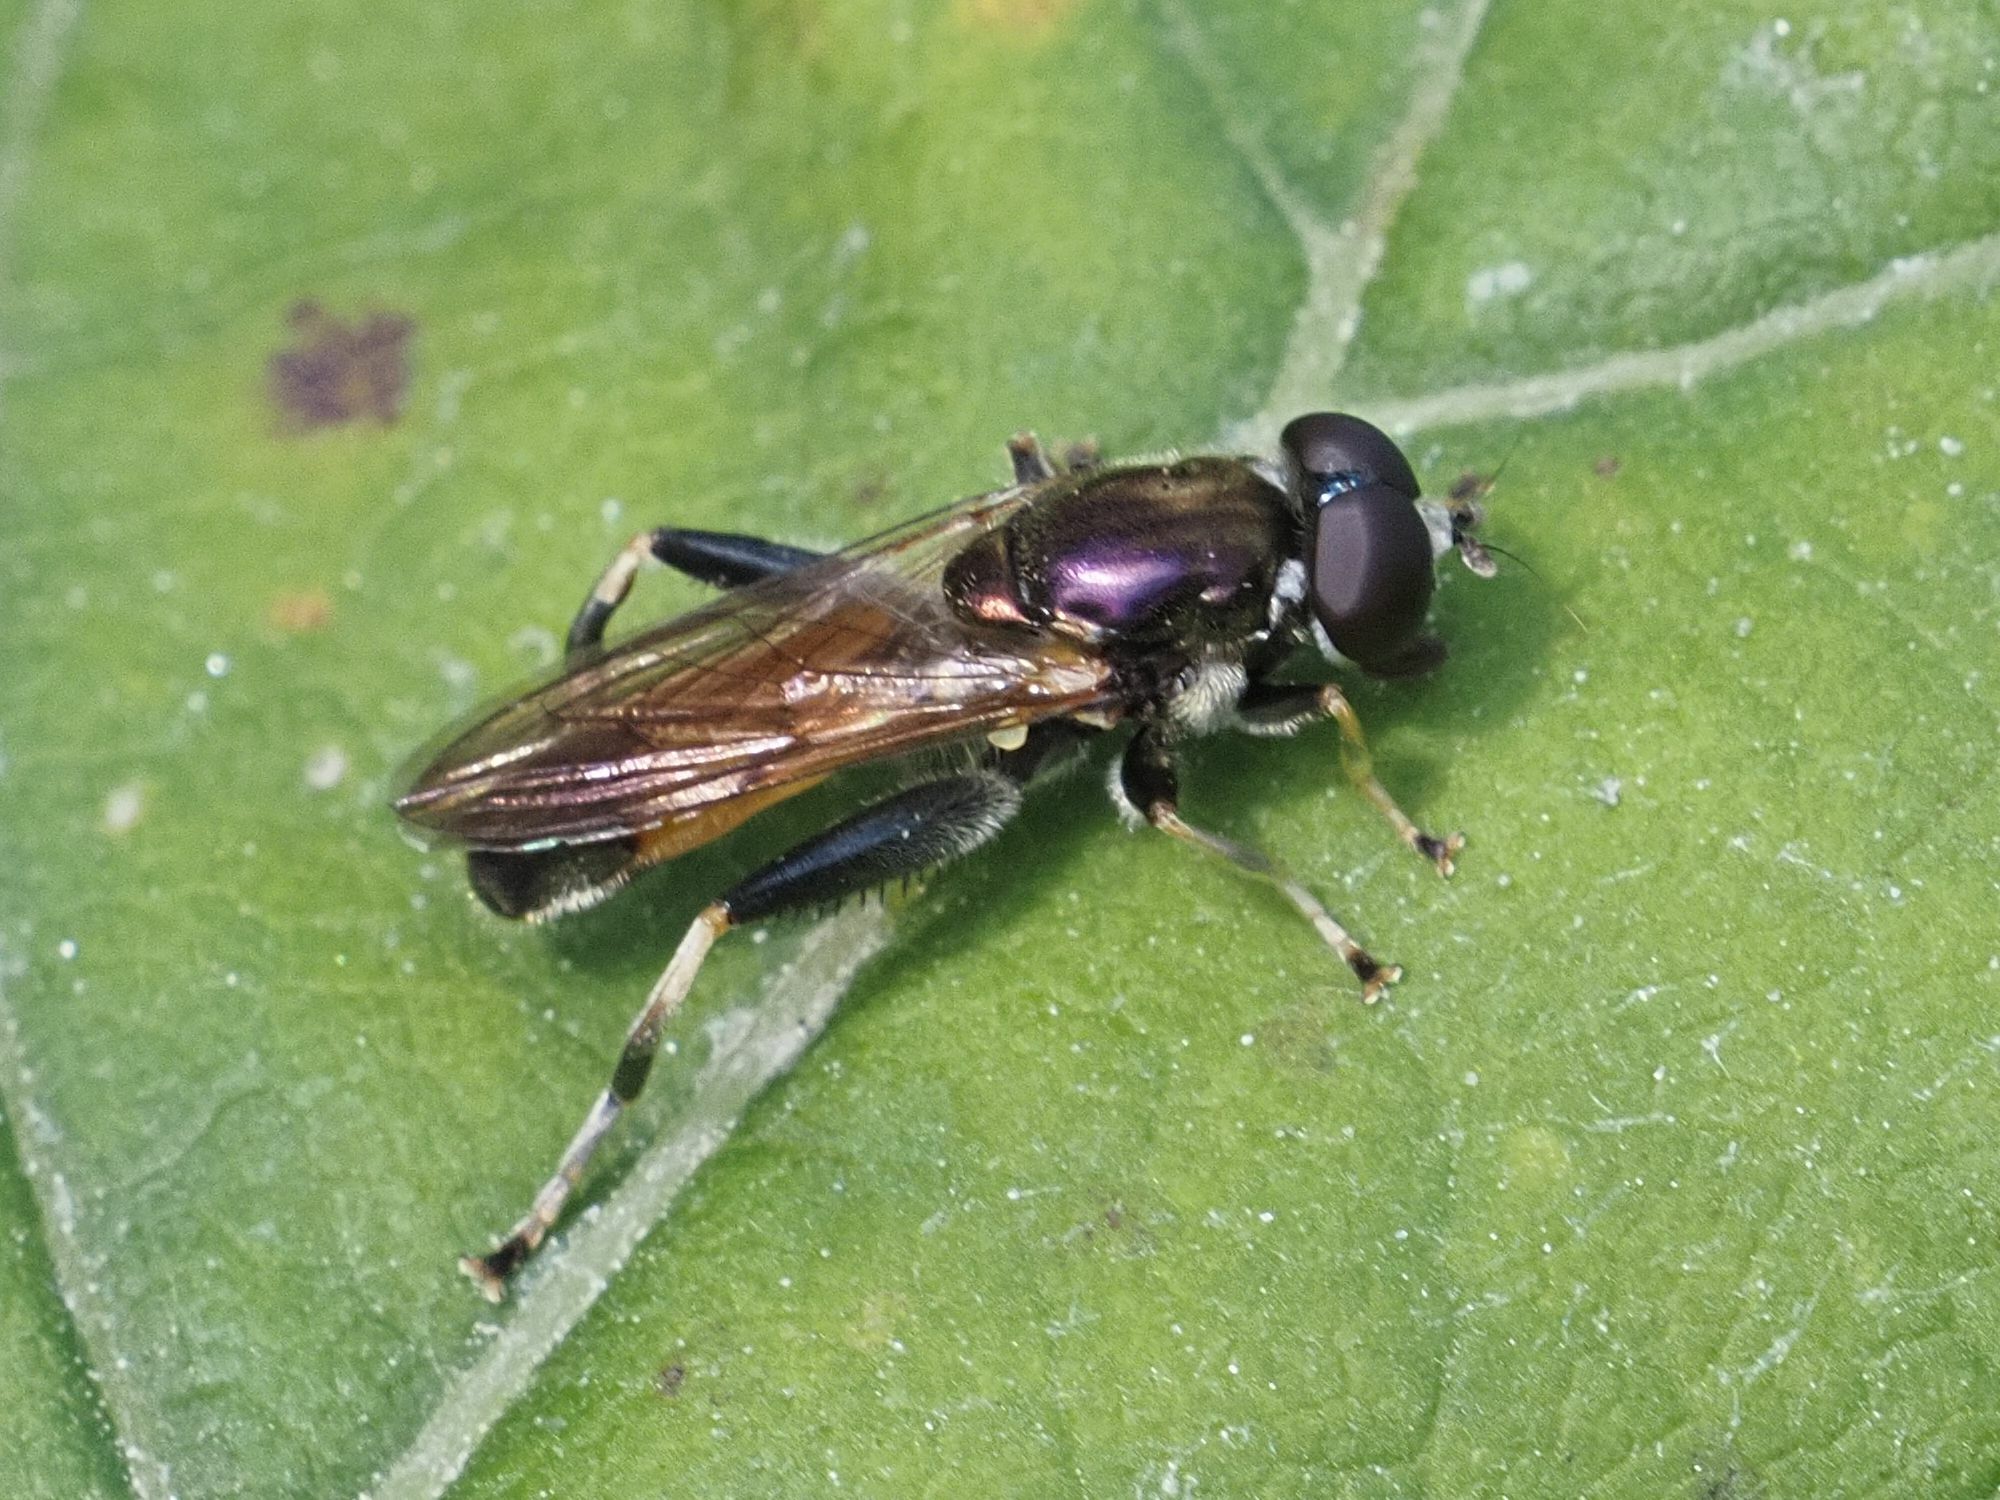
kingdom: Animalia
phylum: Arthropoda
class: Insecta
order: Diptera
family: Syrphidae
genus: Xylota
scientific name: Xylota segnis
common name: Brown-toed forest fly
